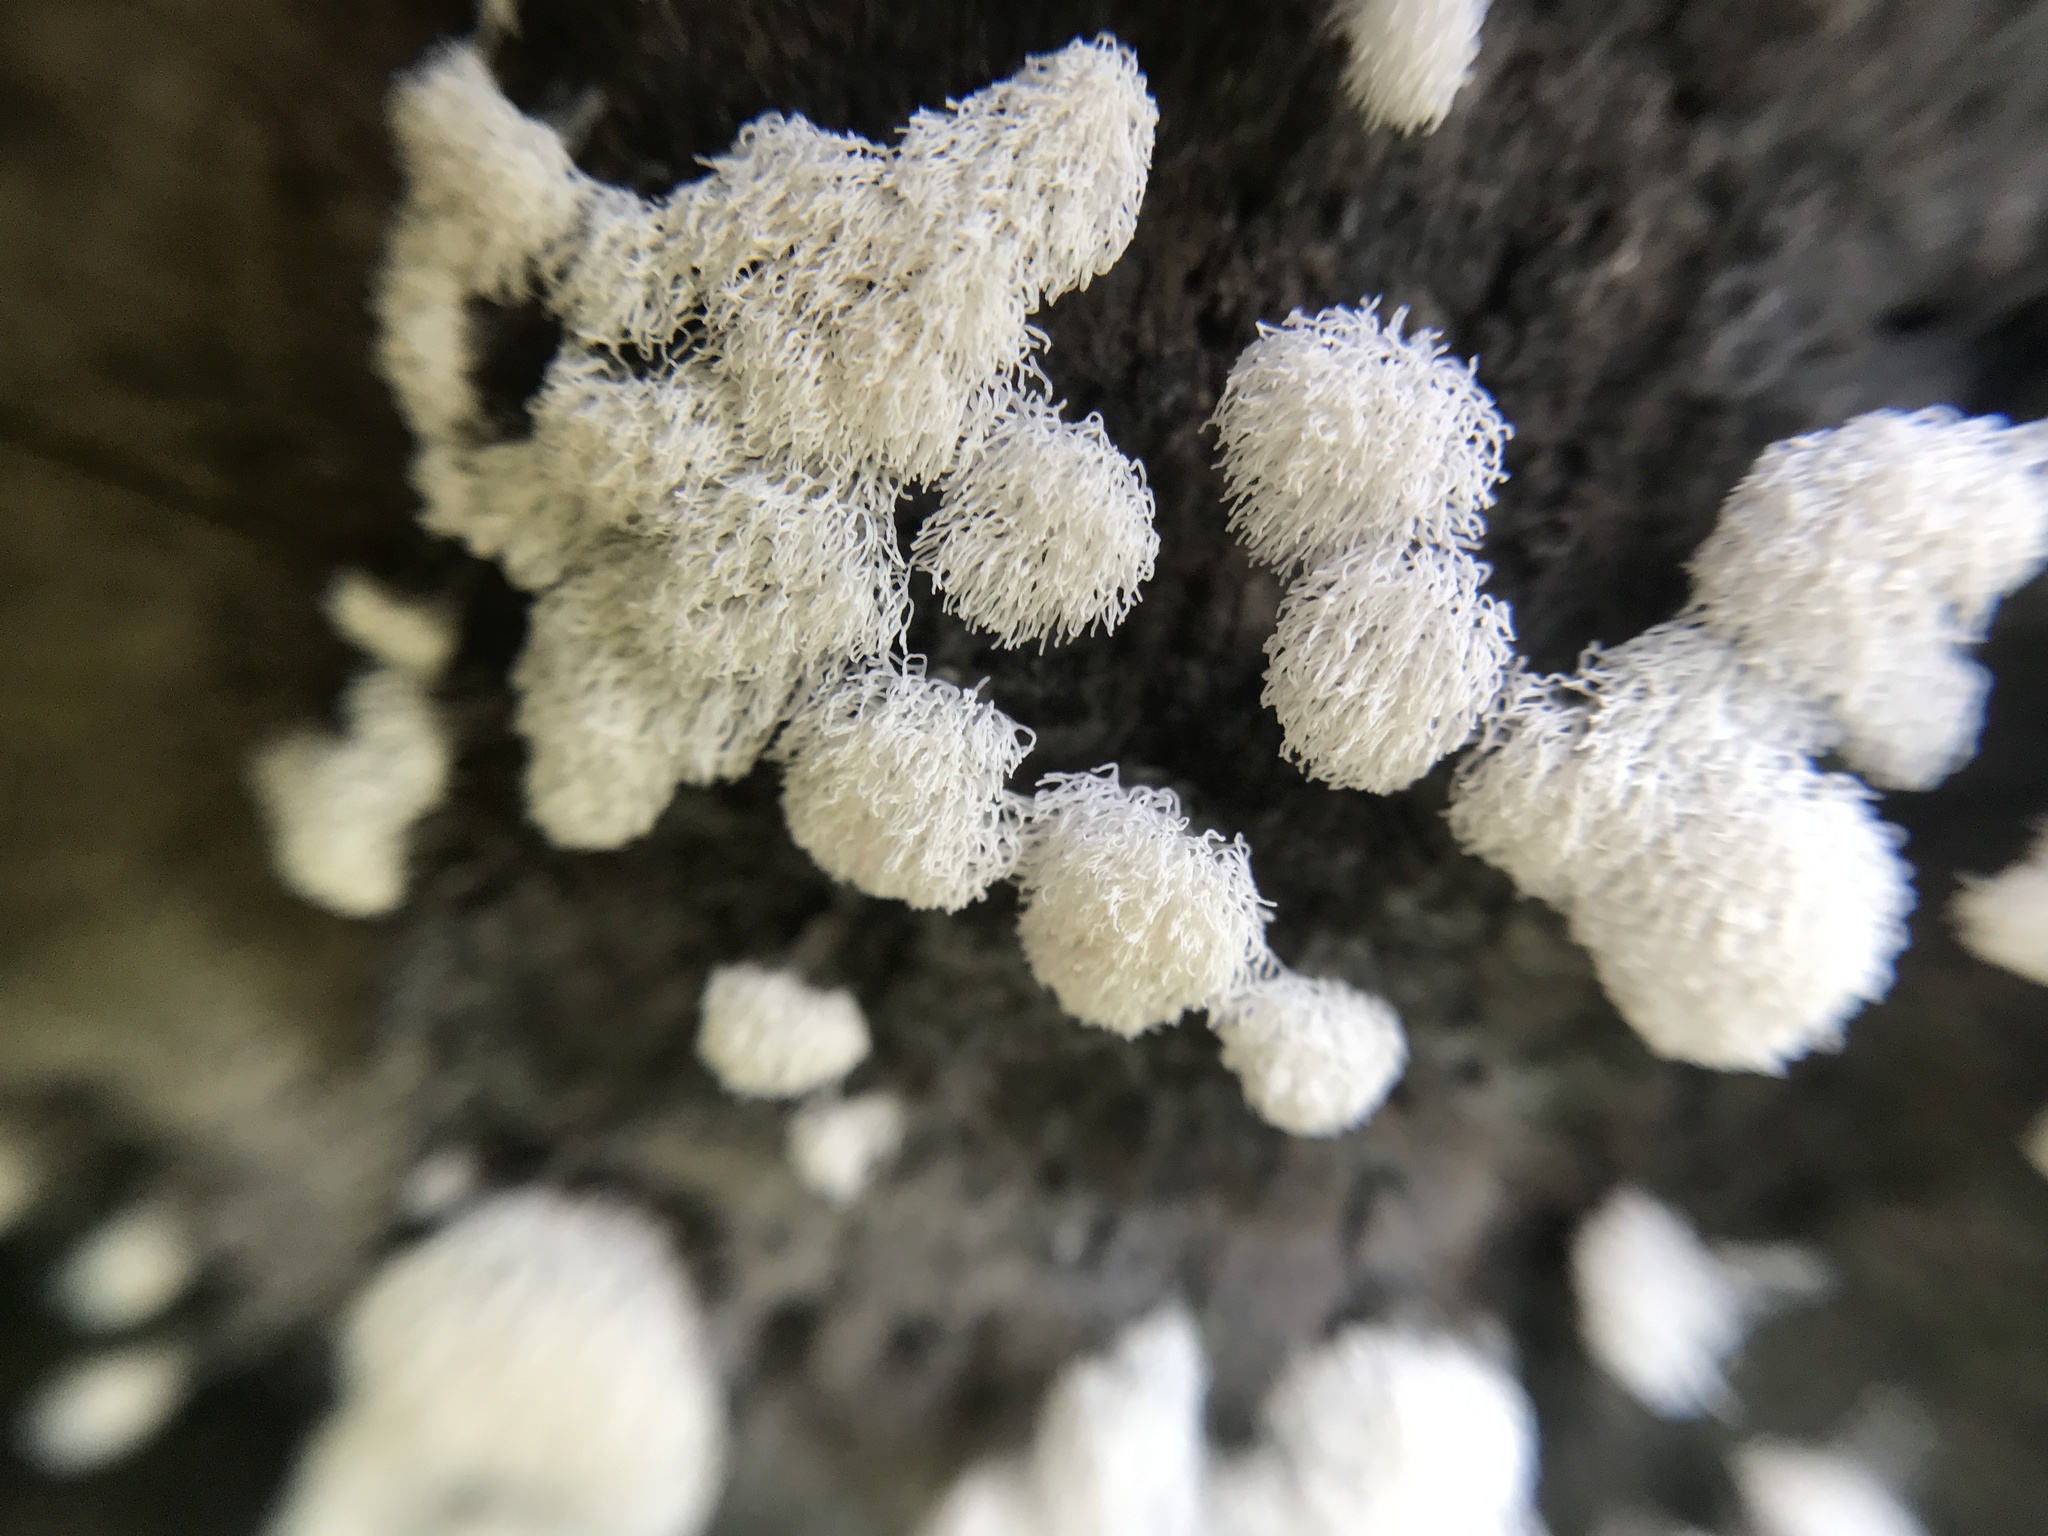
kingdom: Protozoa
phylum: Mycetozoa
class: Protosteliomycetes
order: Ceratiomyxales
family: Ceratiomyxaceae
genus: Ceratiomyxa
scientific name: Ceratiomyxa fruticulosa
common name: Honeycomb coral slime mold
